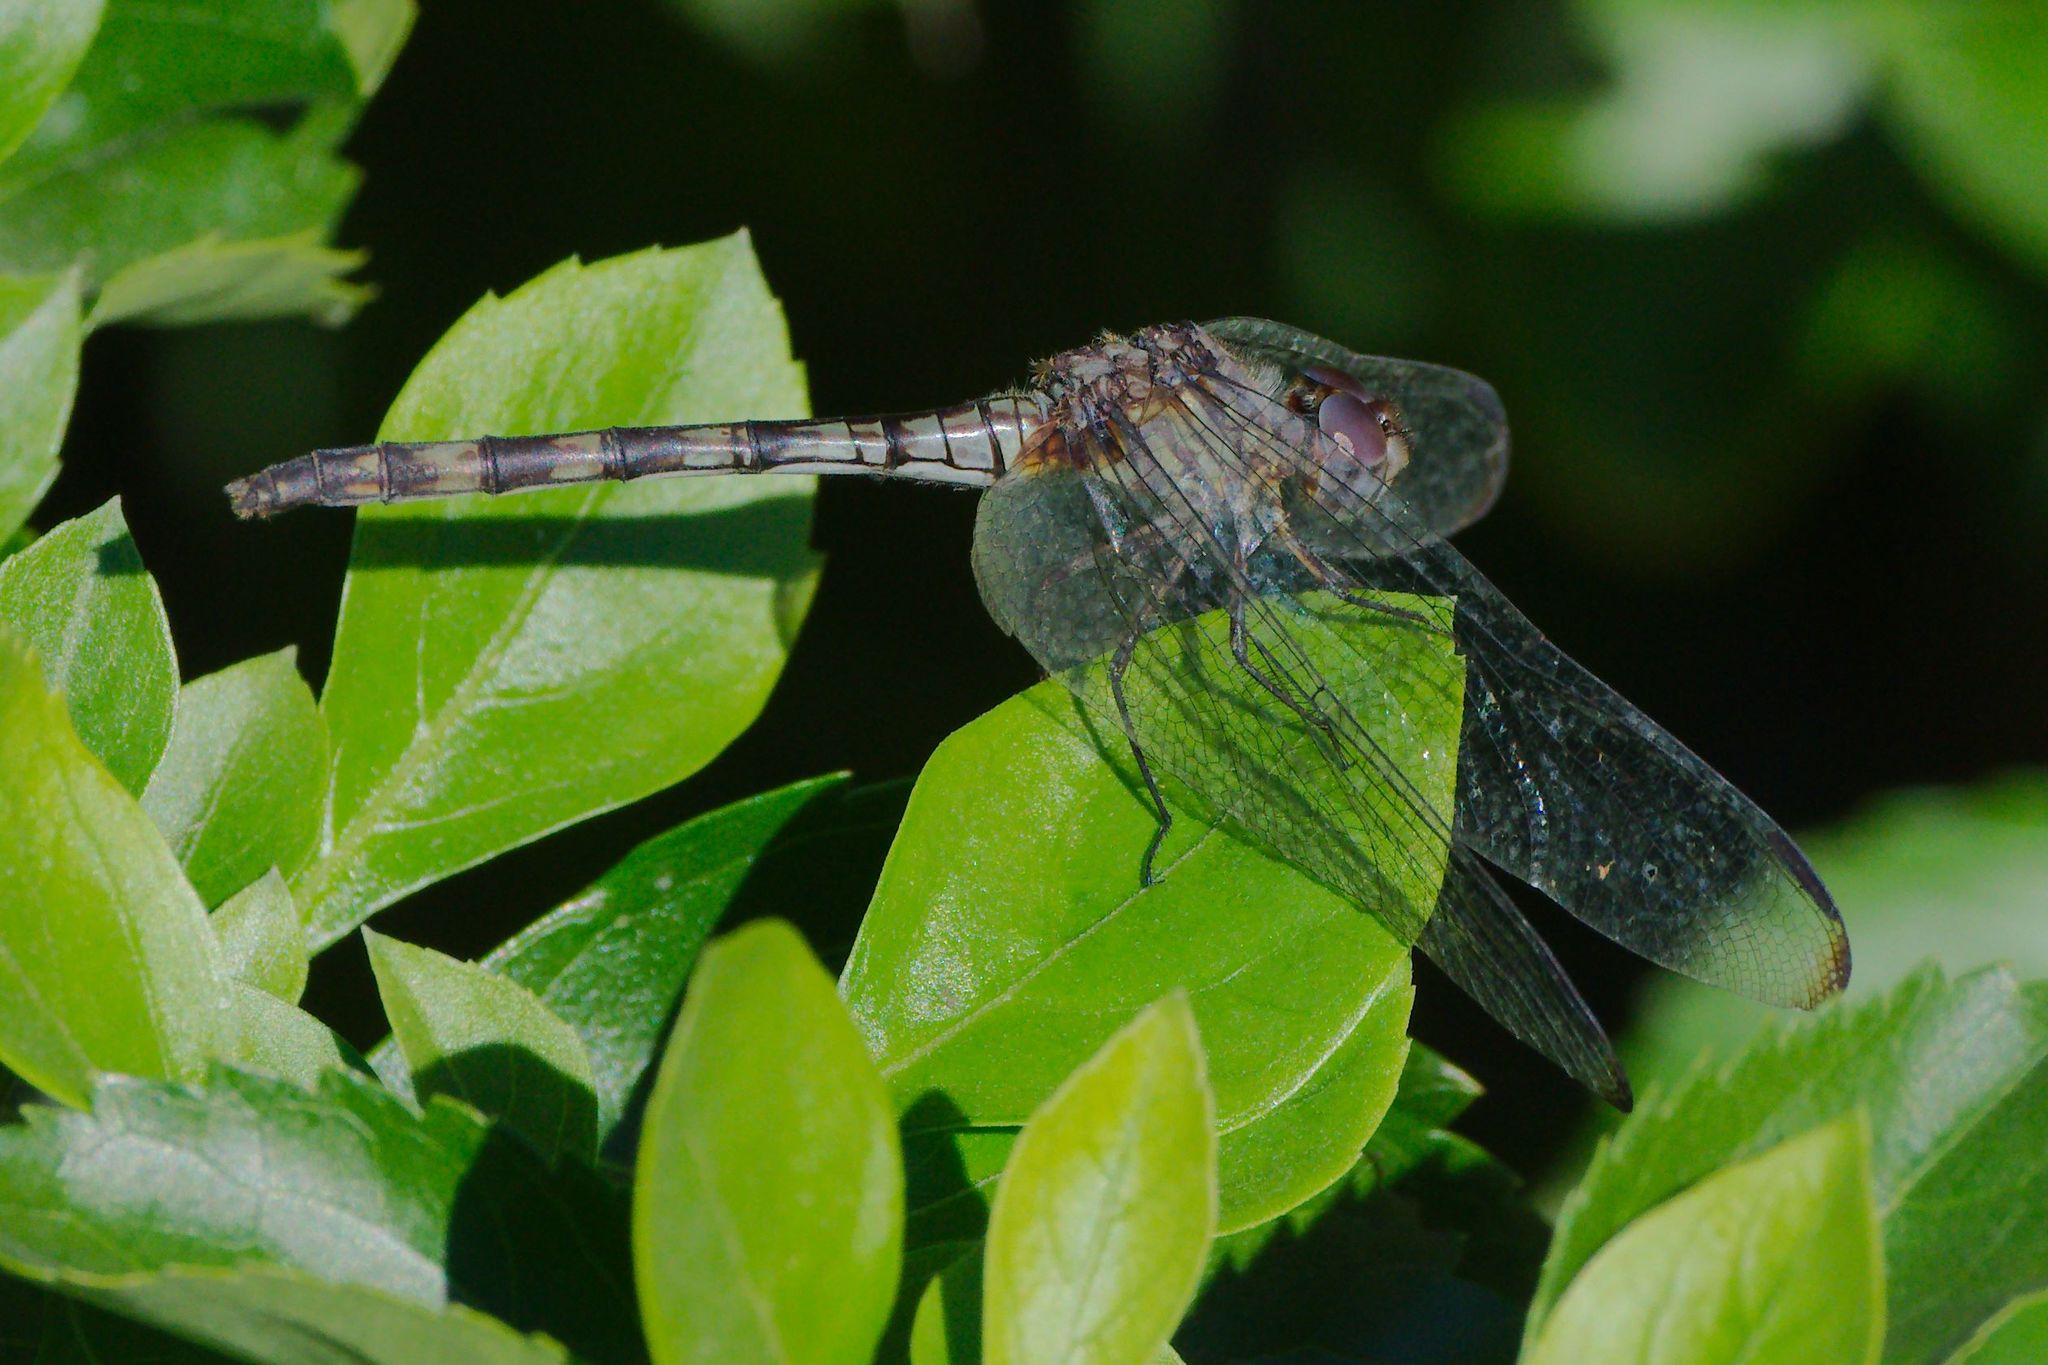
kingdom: Animalia
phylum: Arthropoda
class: Insecta
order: Odonata
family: Libellulidae
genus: Dythemis
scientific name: Dythemis nigrescens
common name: Black setwing
